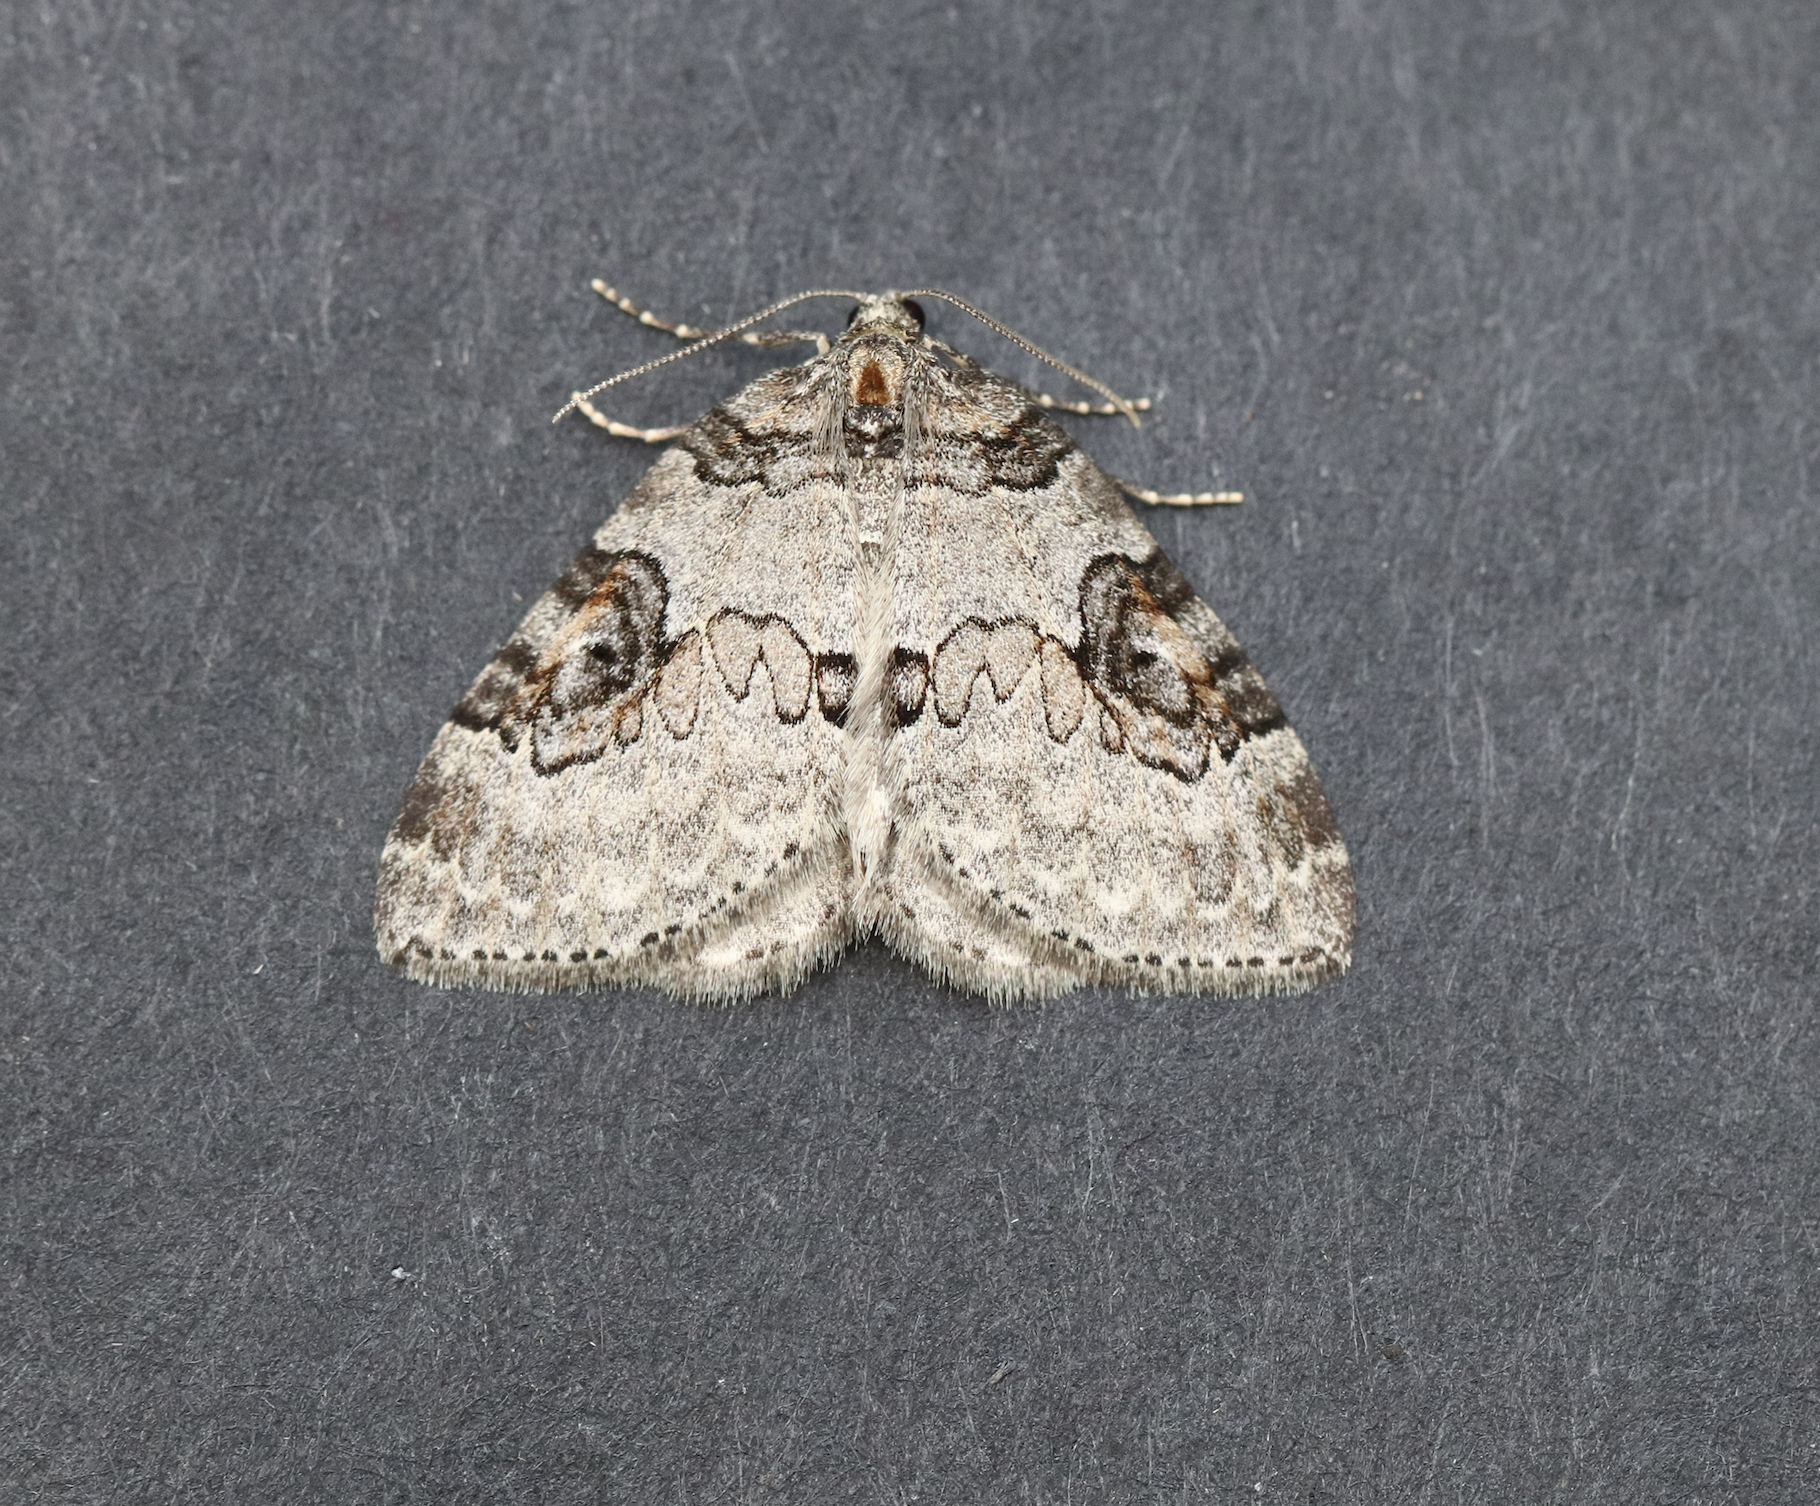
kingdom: Animalia
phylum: Arthropoda
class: Insecta
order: Lepidoptera
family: Geometridae
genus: Plemyria
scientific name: Plemyria georgii
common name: George's carpet moth
